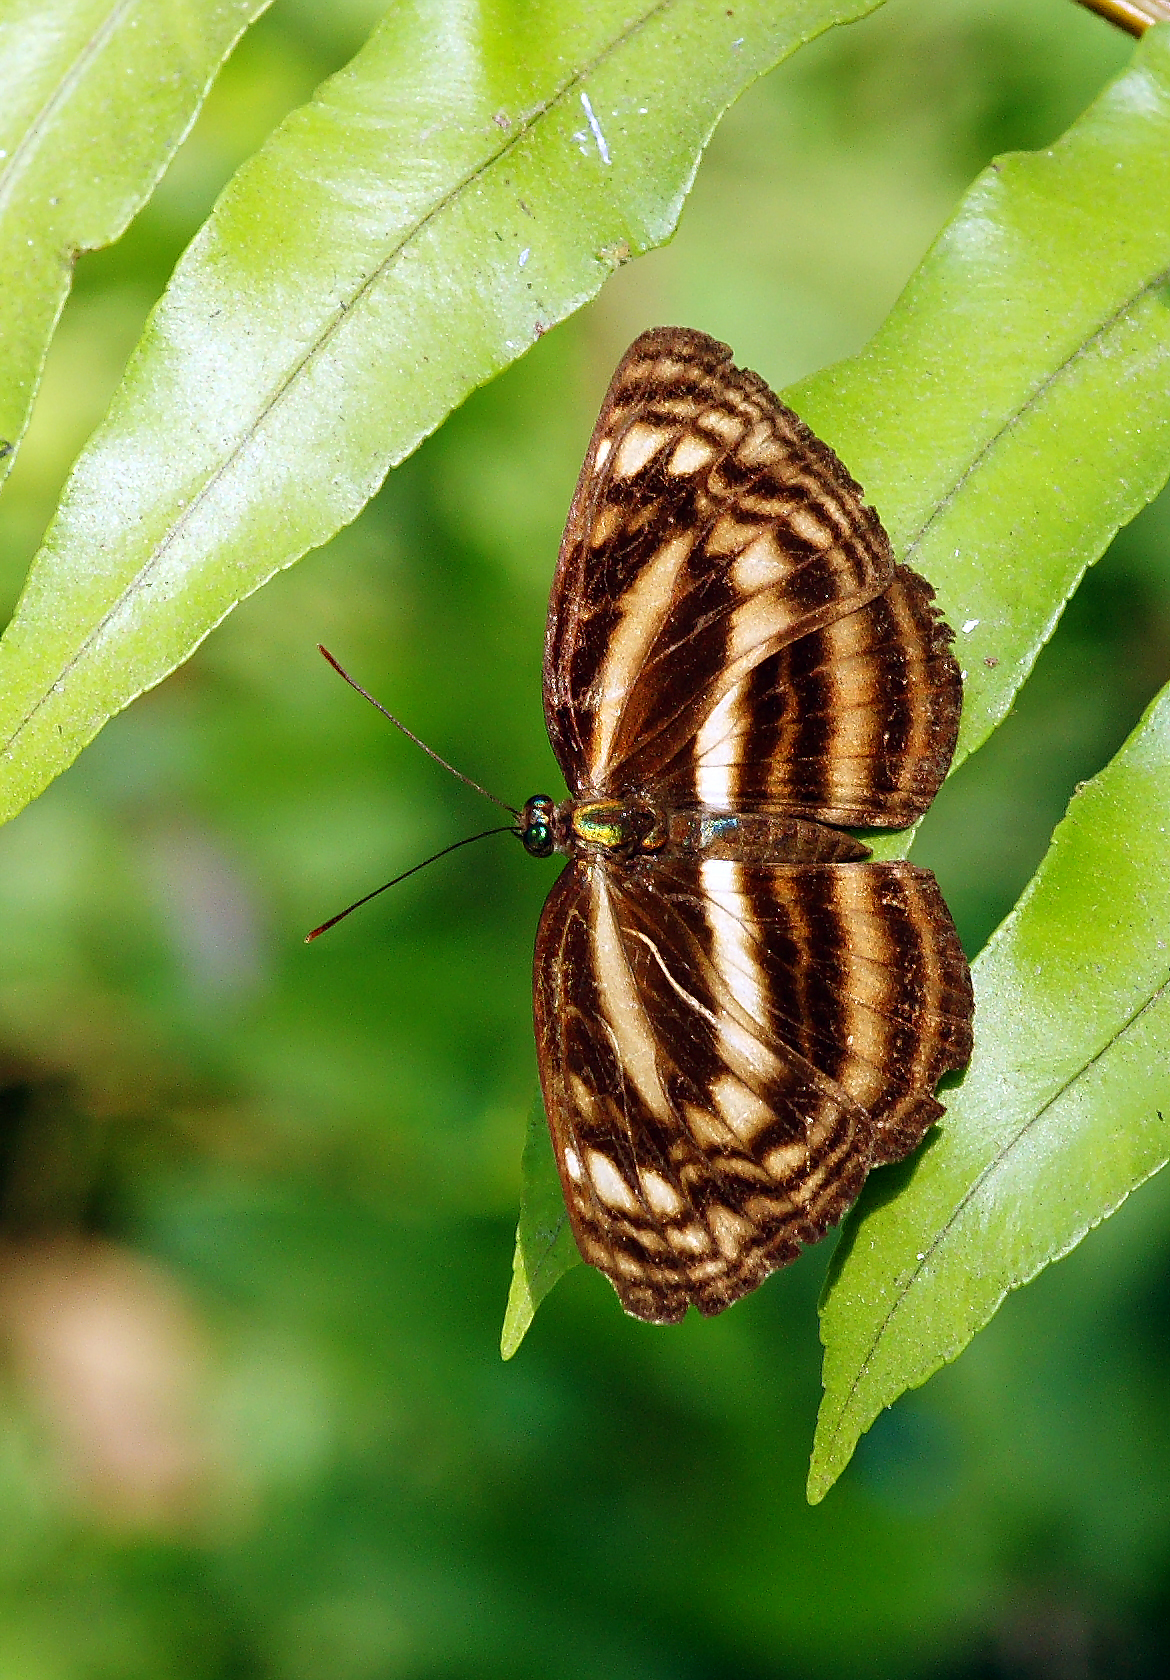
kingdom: Animalia
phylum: Arthropoda
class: Insecta
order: Lepidoptera
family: Nymphalidae
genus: Lasippa
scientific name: Lasippa monata
